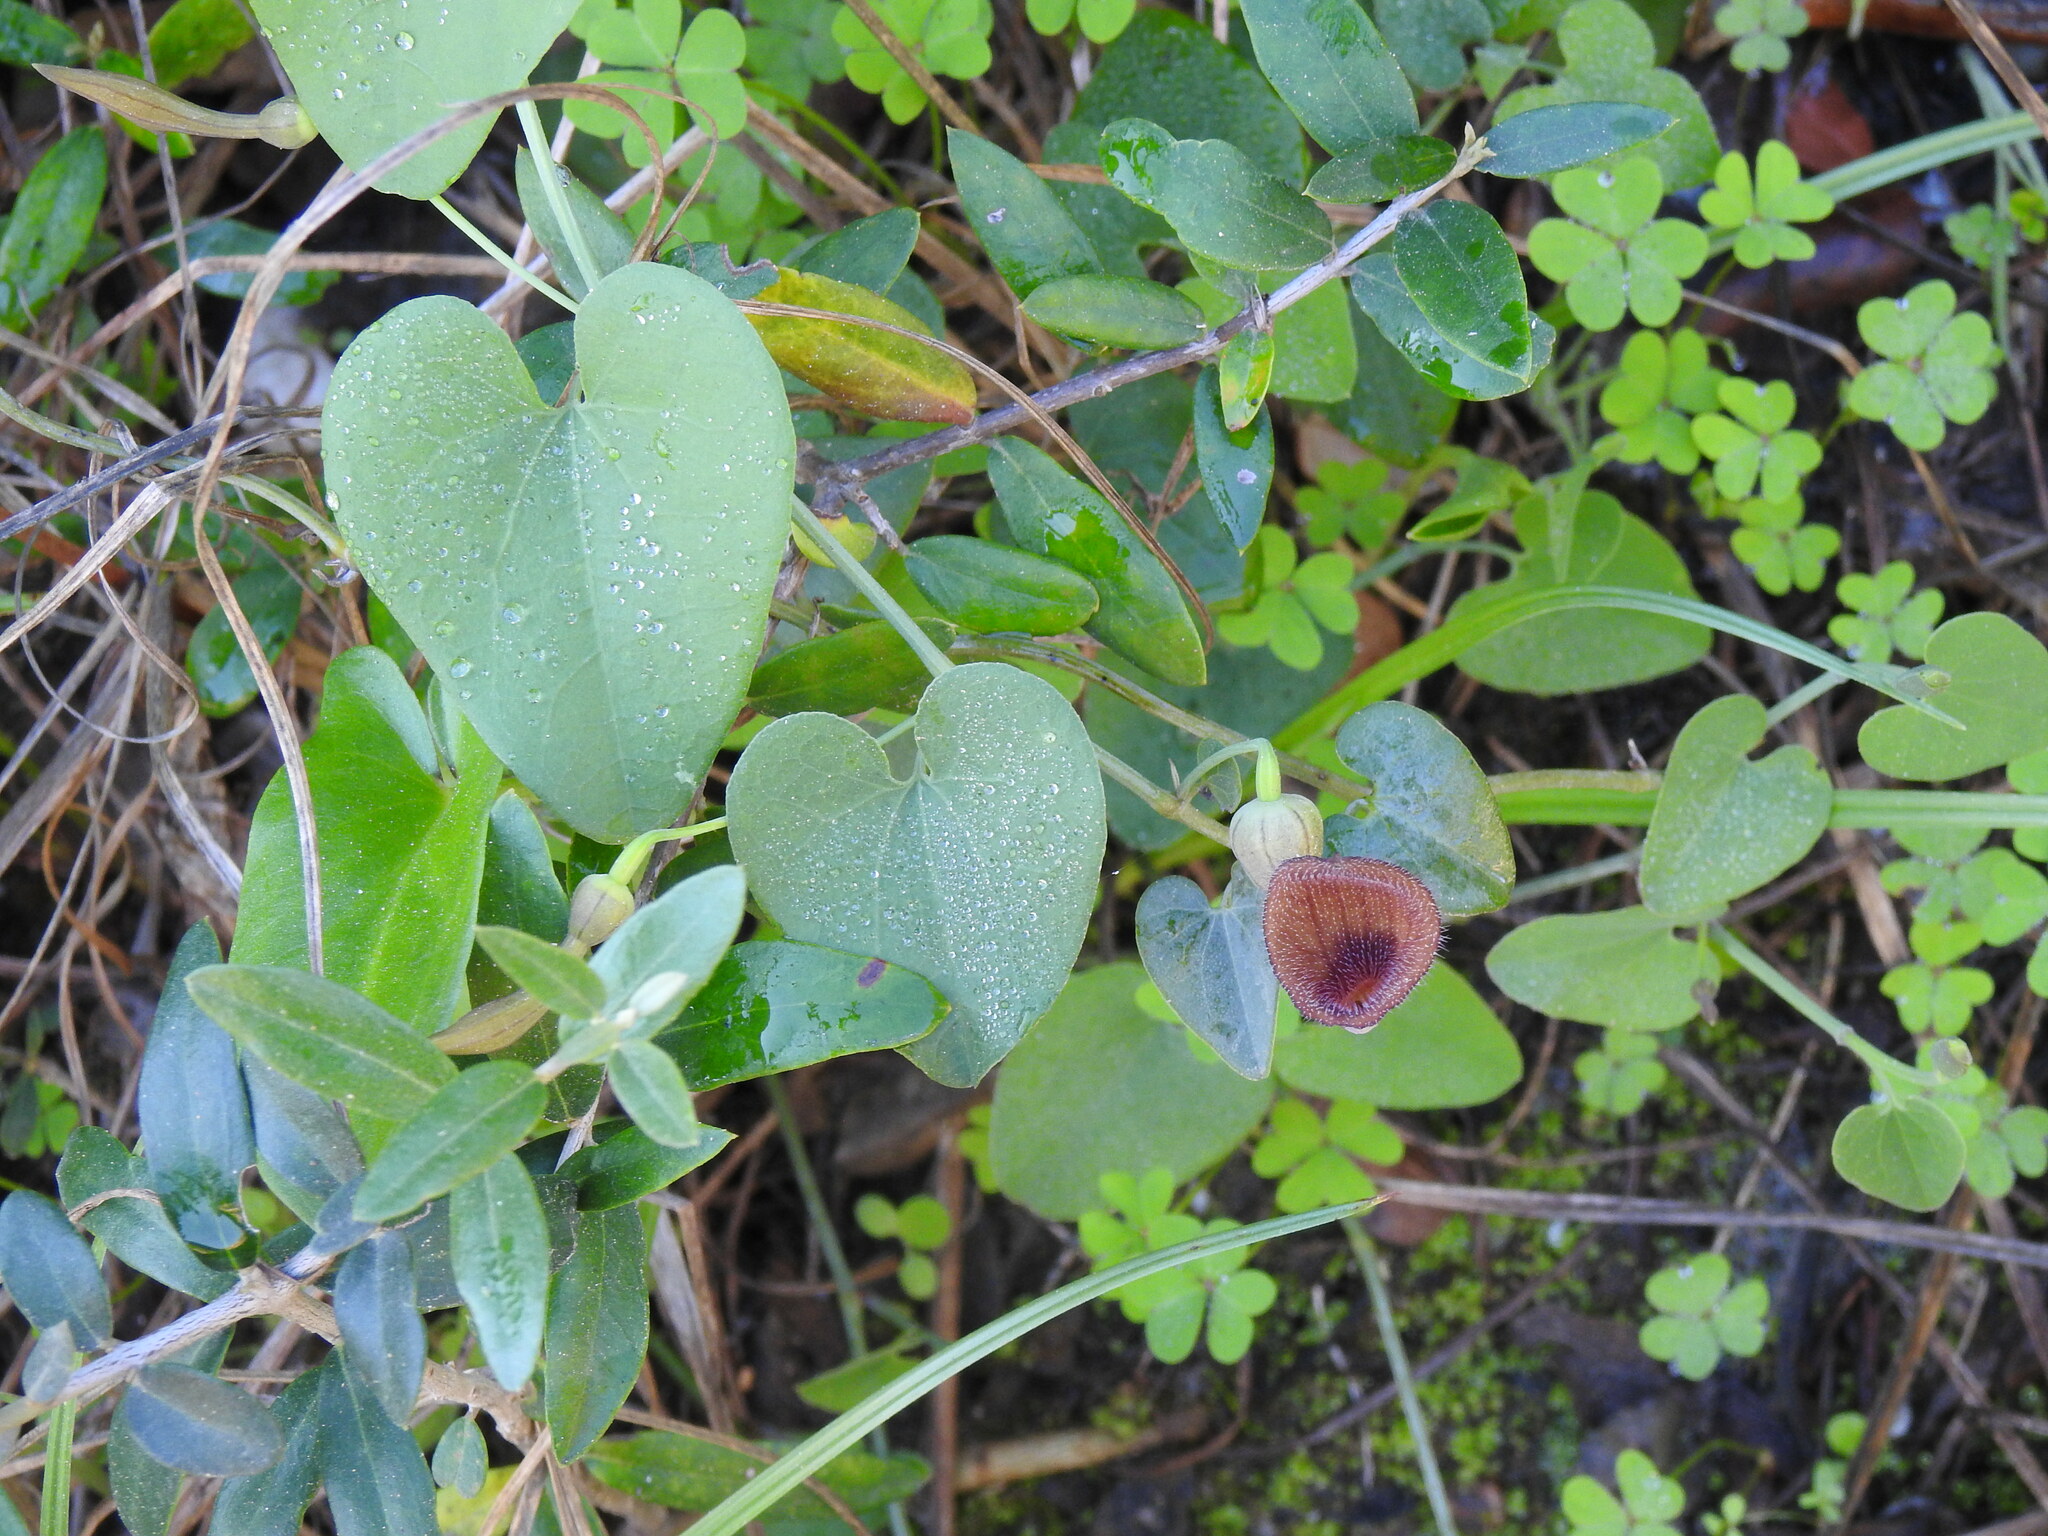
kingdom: Plantae
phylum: Tracheophyta
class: Magnoliopsida
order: Piperales
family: Aristolochiaceae
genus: Aristolochia
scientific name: Aristolochia baetica
